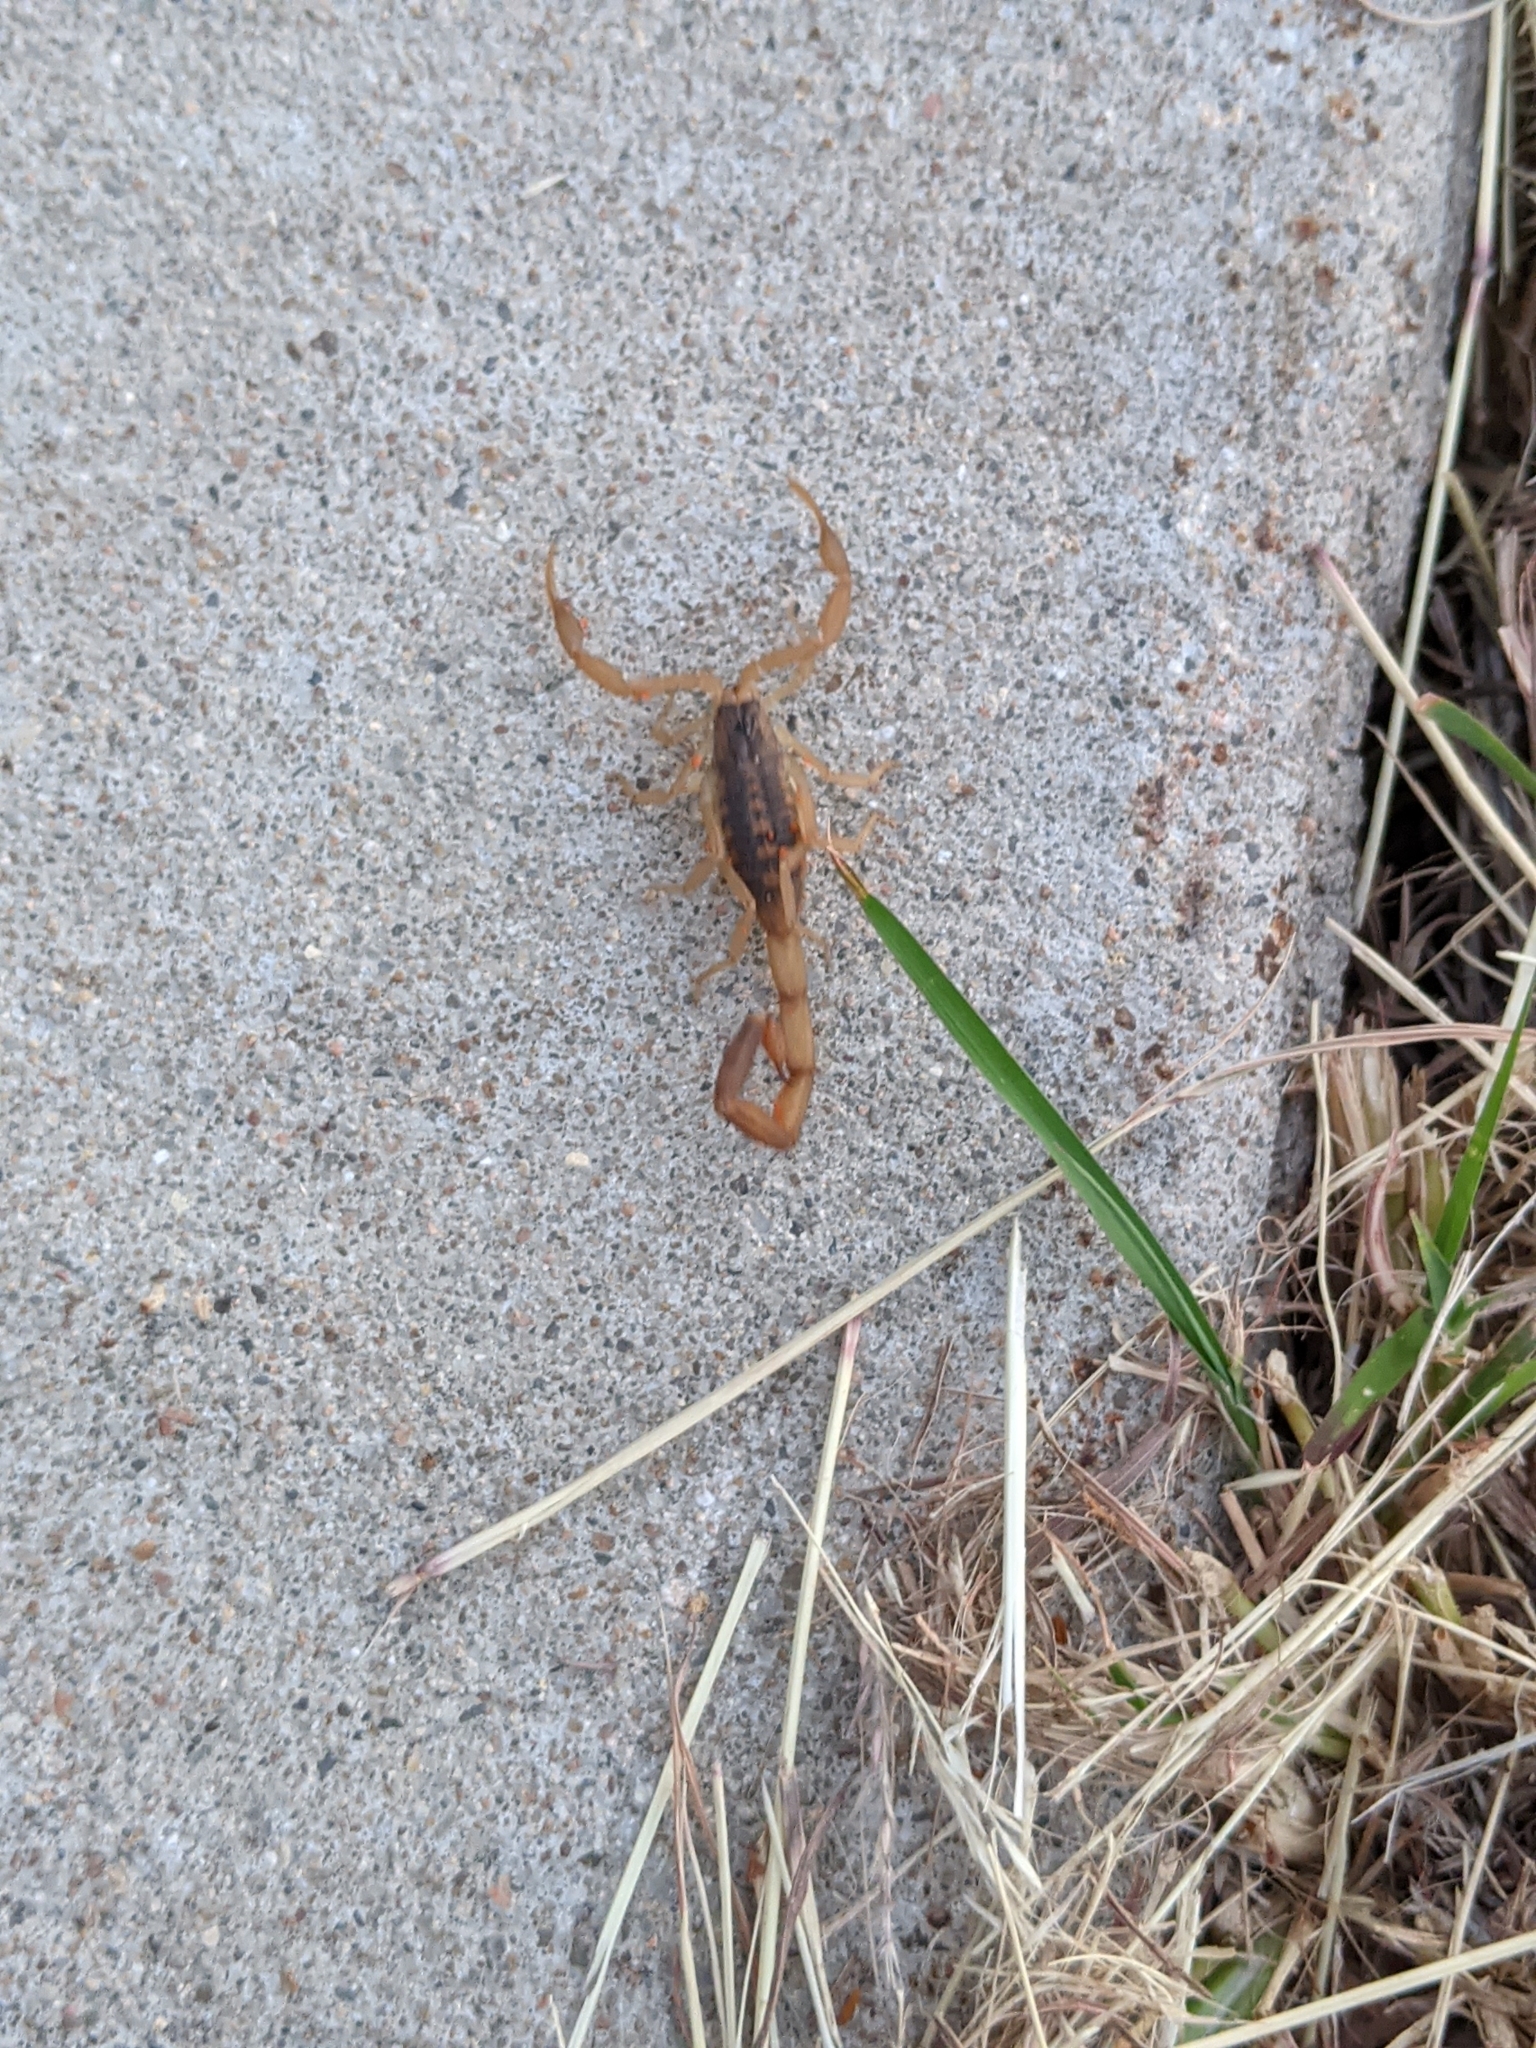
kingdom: Animalia
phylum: Arthropoda
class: Arachnida
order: Scorpiones
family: Buthidae
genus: Centruroides
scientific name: Centruroides vittatus
